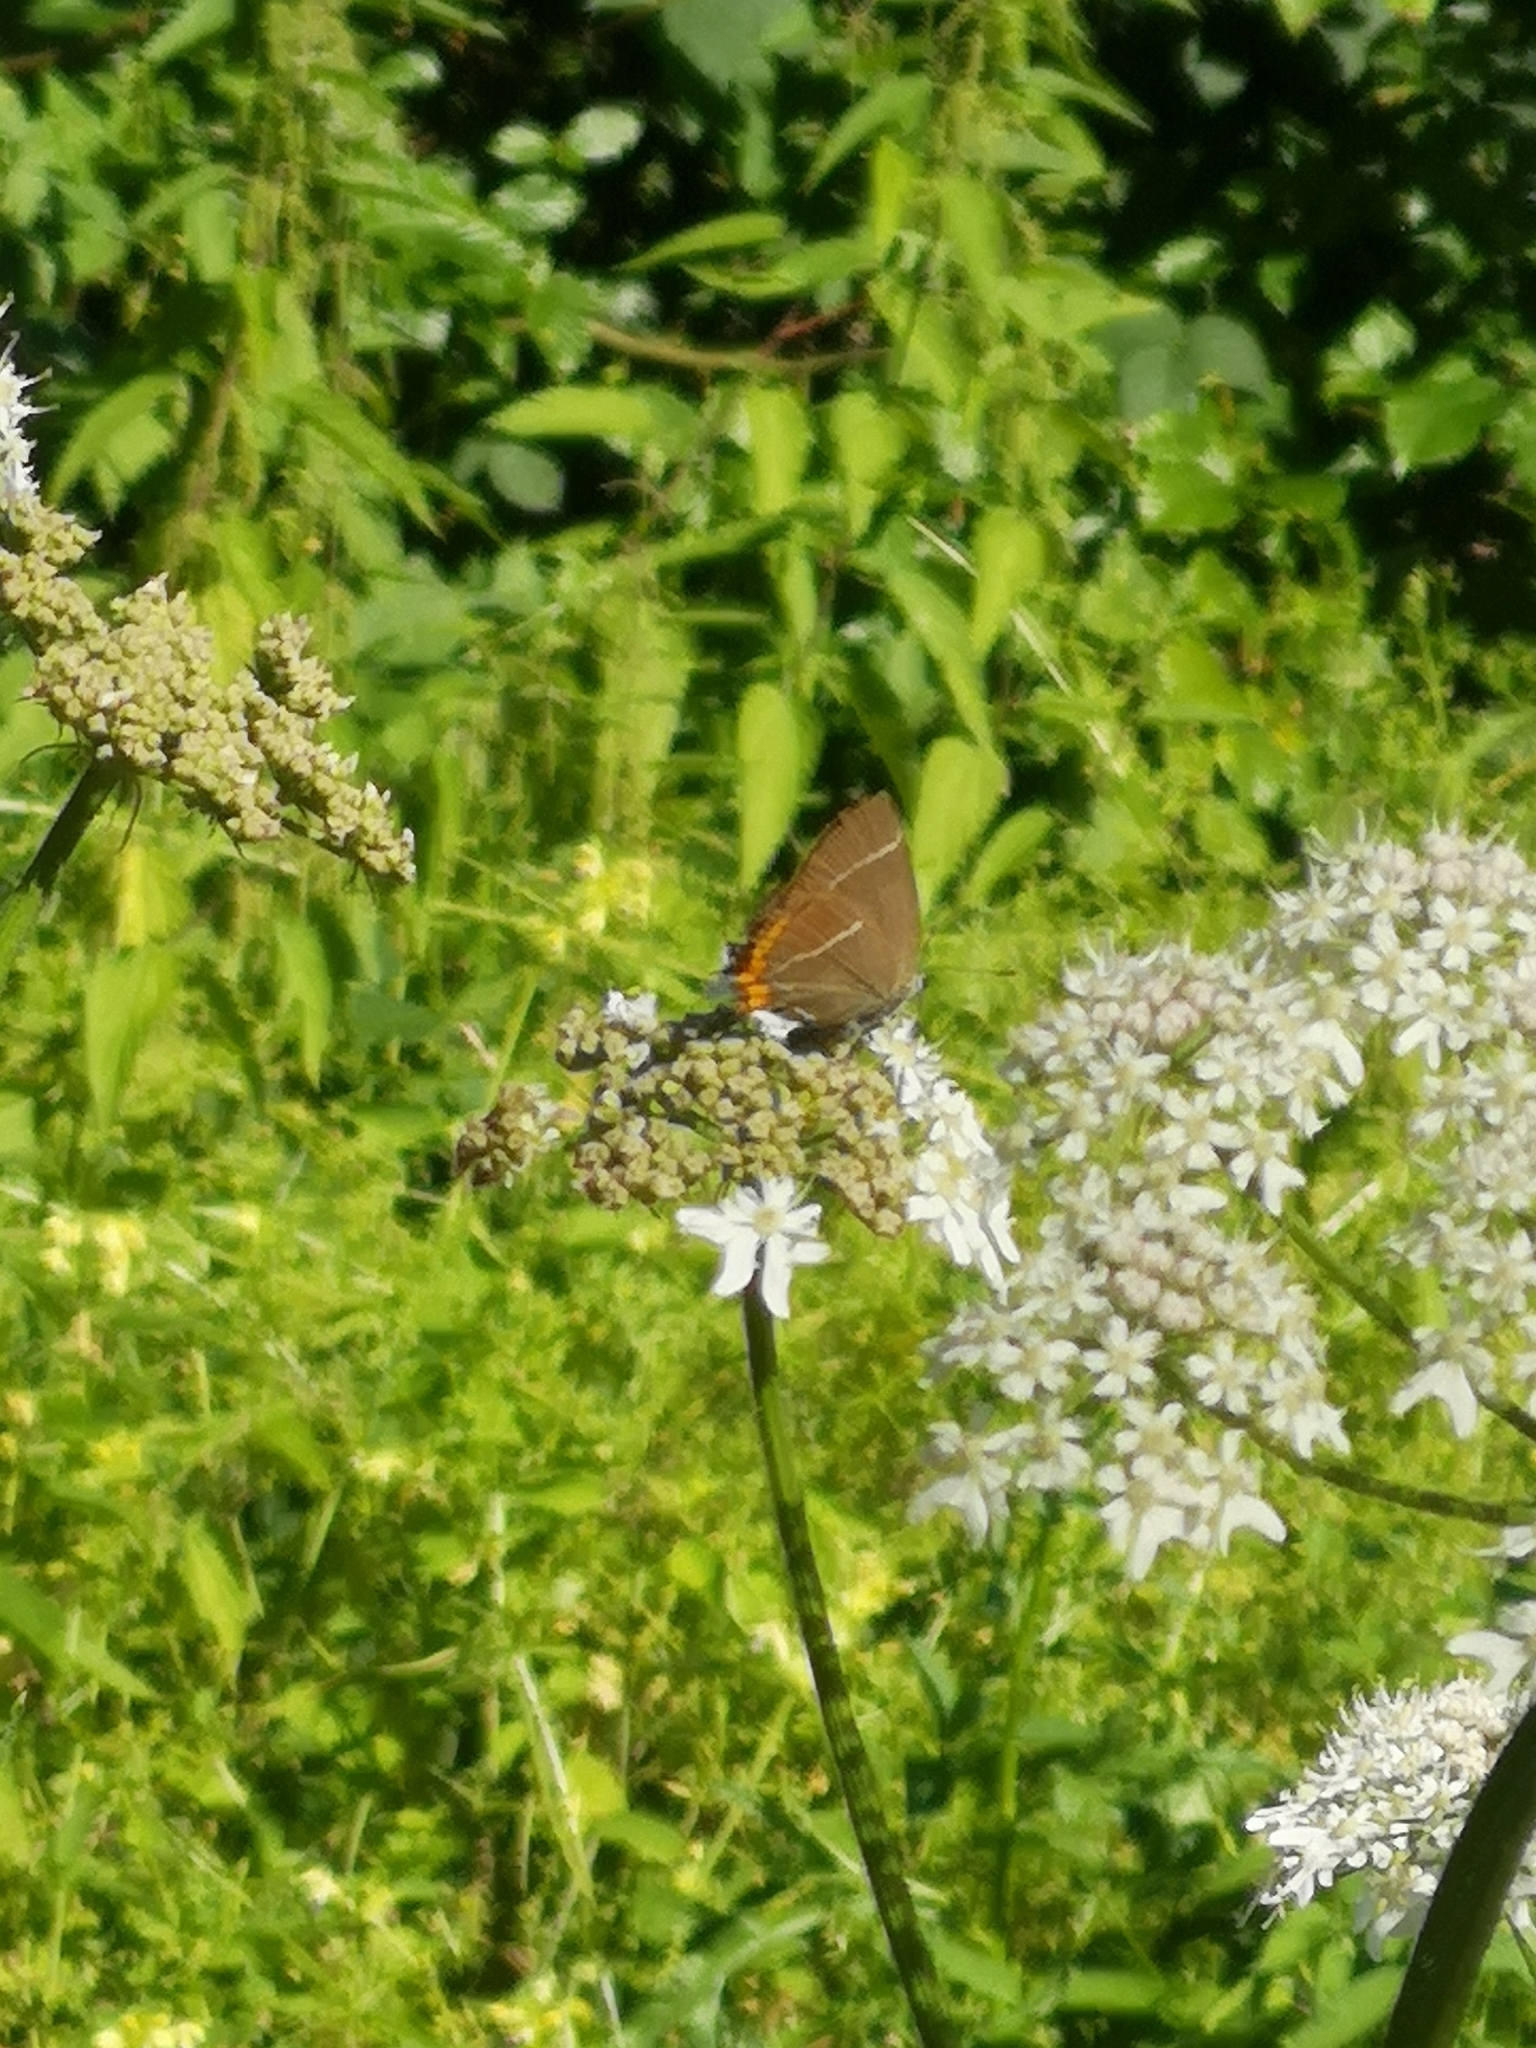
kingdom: Animalia
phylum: Arthropoda
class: Insecta
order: Lepidoptera
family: Lycaenidae
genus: Satyrium
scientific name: Satyrium w-album
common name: White-letter hairstreak
